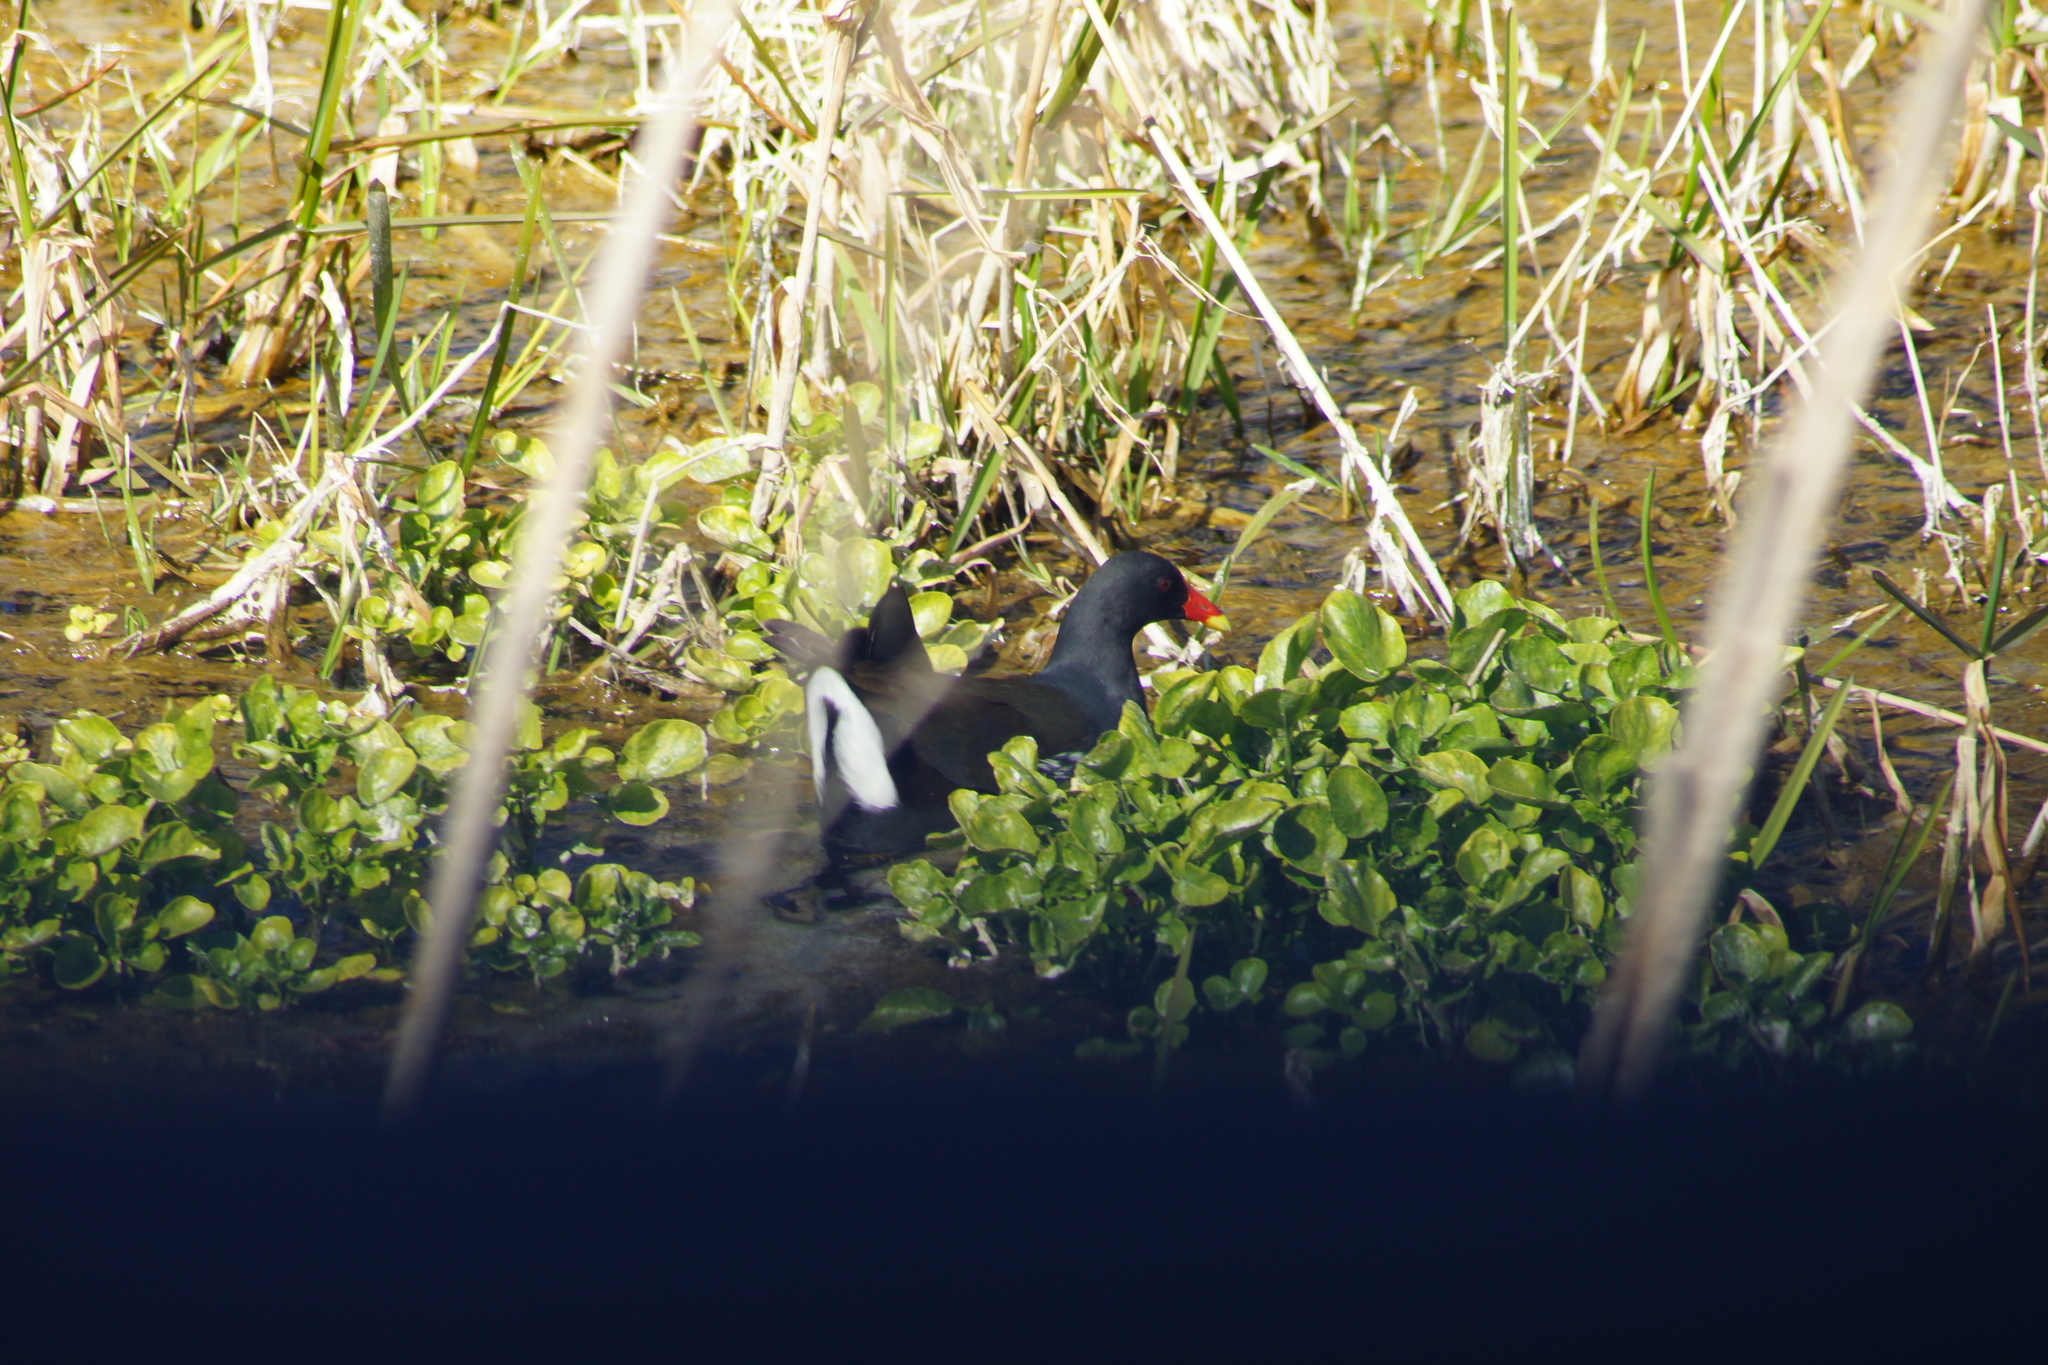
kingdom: Animalia
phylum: Chordata
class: Aves
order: Gruiformes
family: Rallidae
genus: Gallinula
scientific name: Gallinula chloropus
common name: Common moorhen
